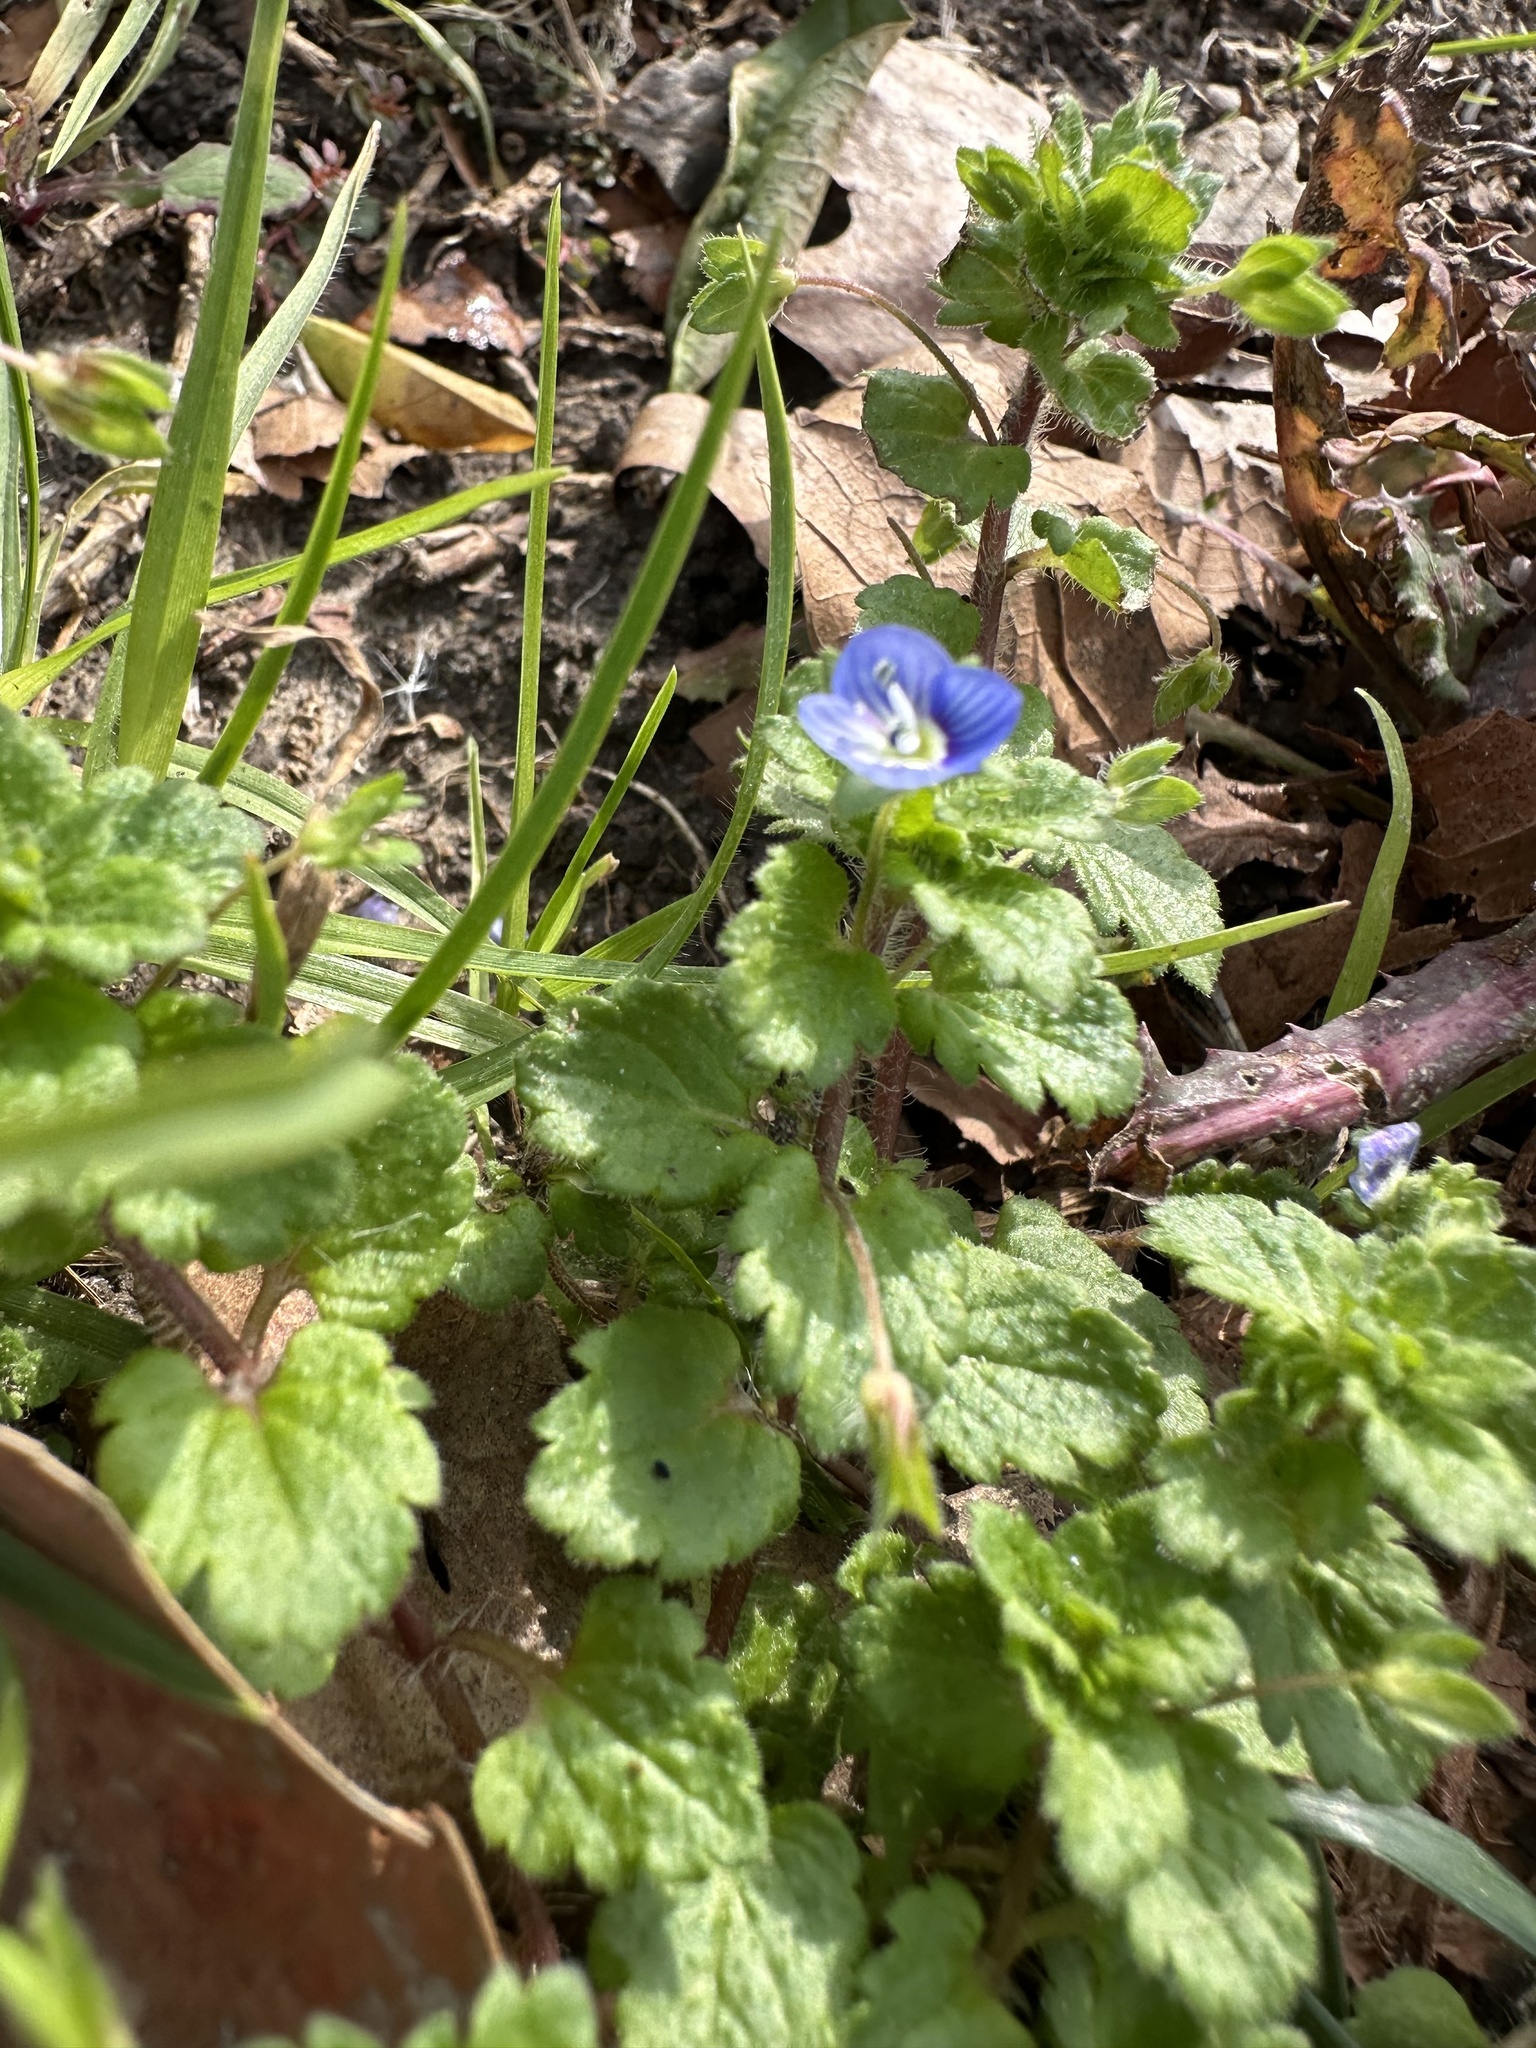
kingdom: Plantae
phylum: Tracheophyta
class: Magnoliopsida
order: Lamiales
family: Plantaginaceae
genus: Veronica
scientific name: Veronica persica
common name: Common field-speedwell
